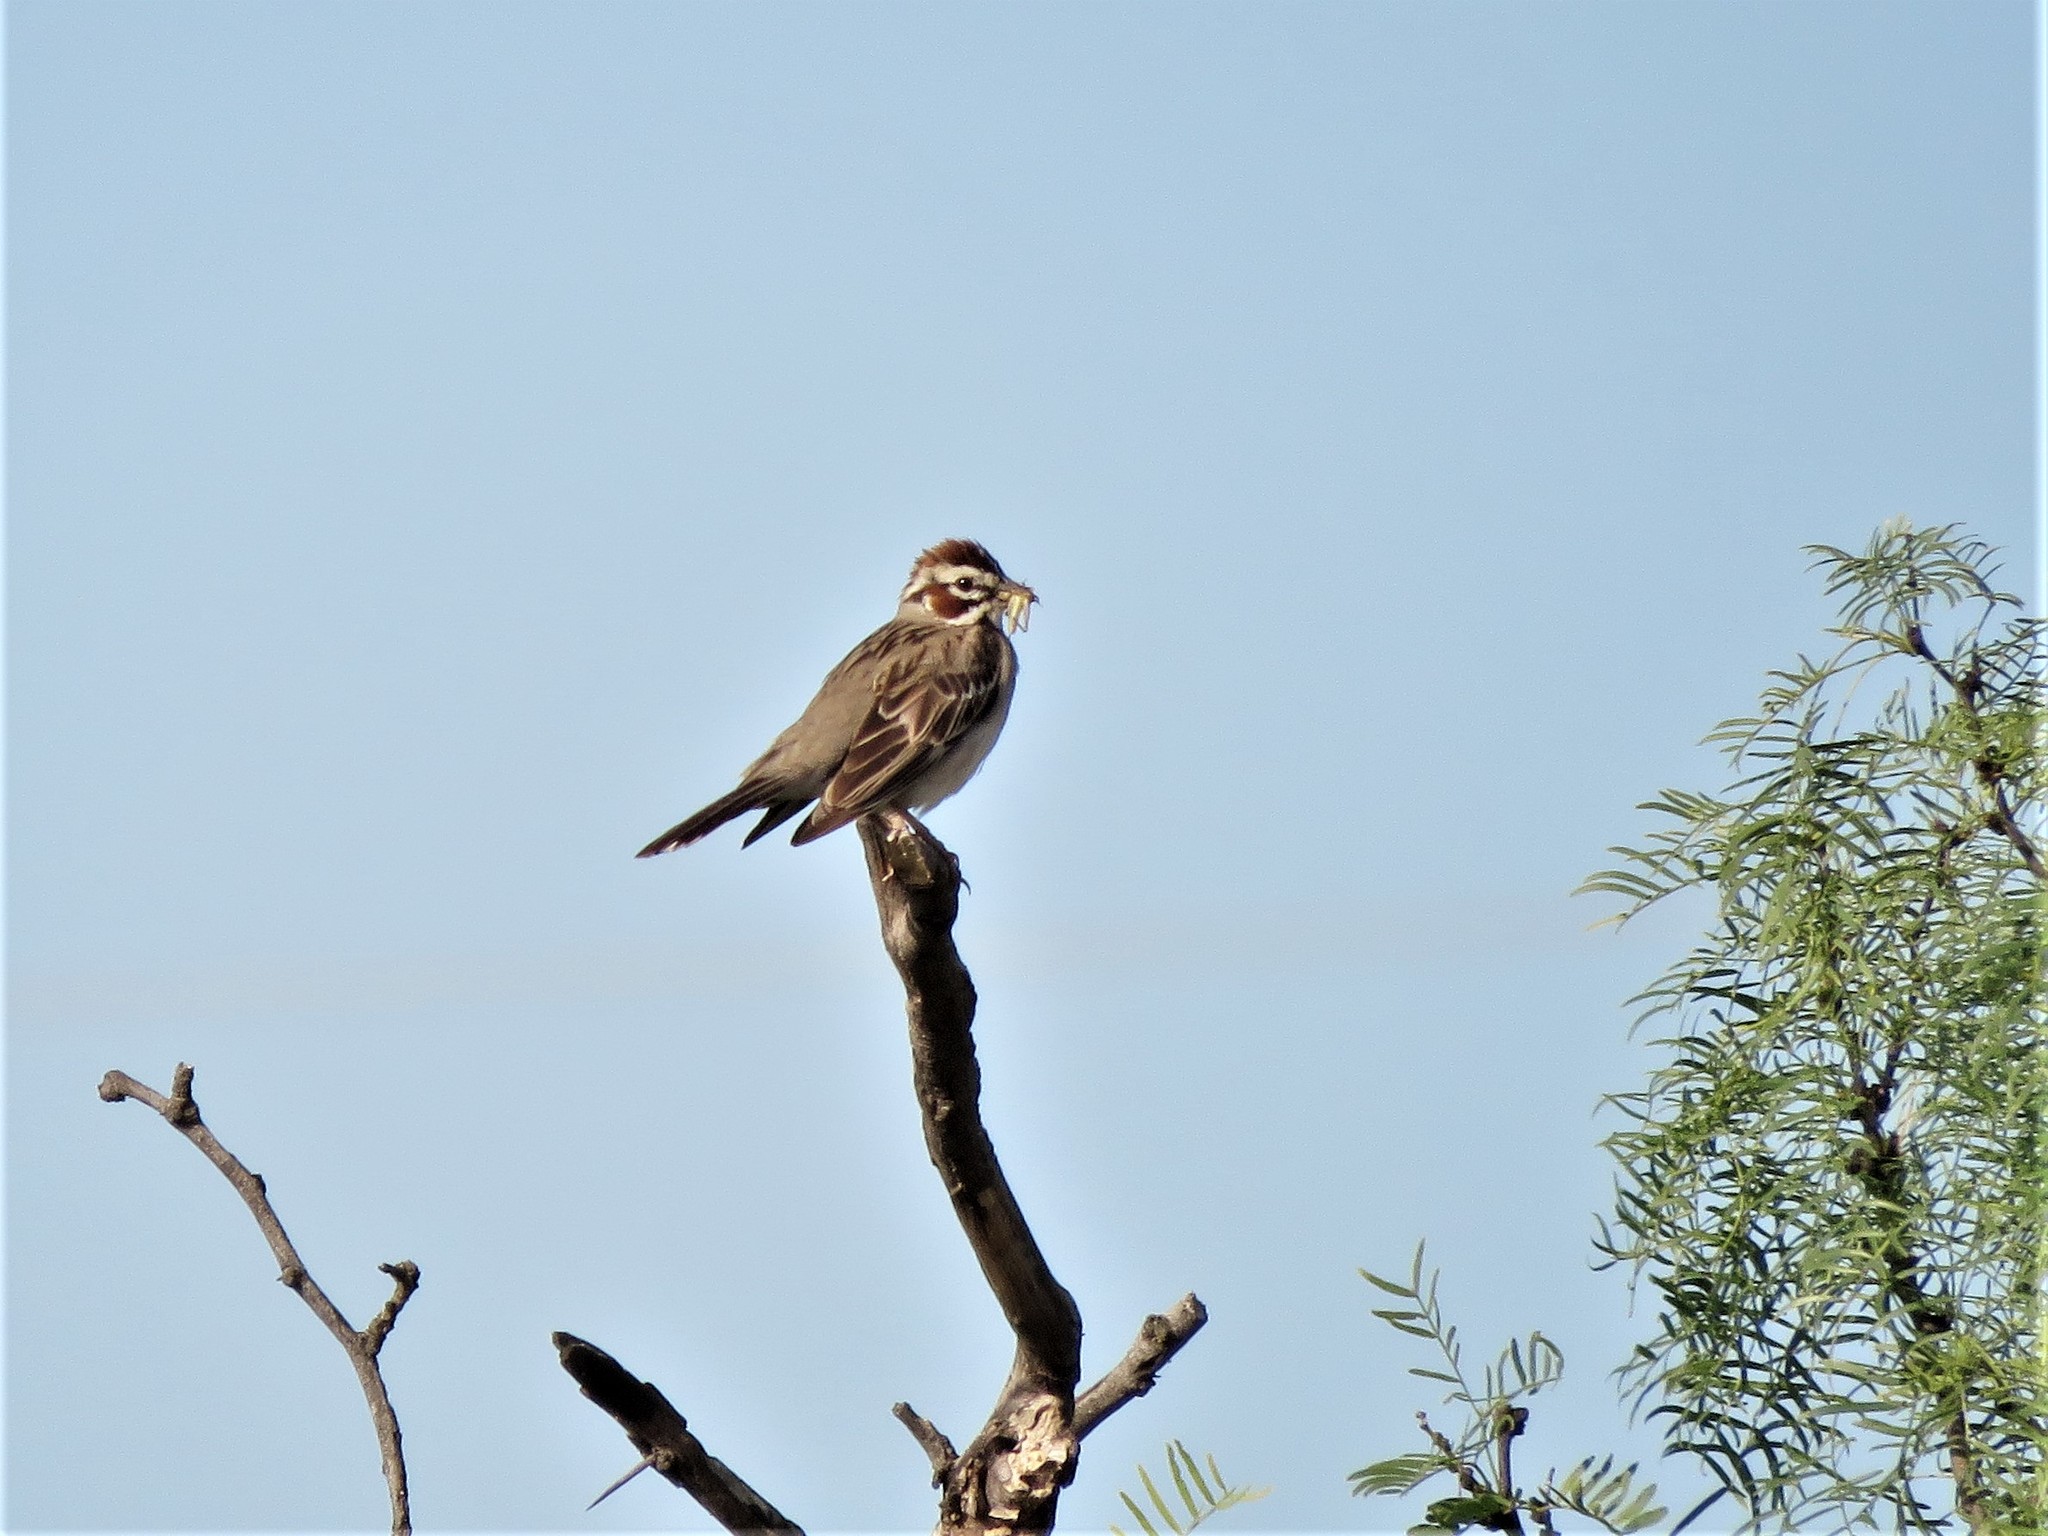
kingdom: Animalia
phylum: Chordata
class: Aves
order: Passeriformes
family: Passerellidae
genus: Chondestes
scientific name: Chondestes grammacus
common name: Lark sparrow
